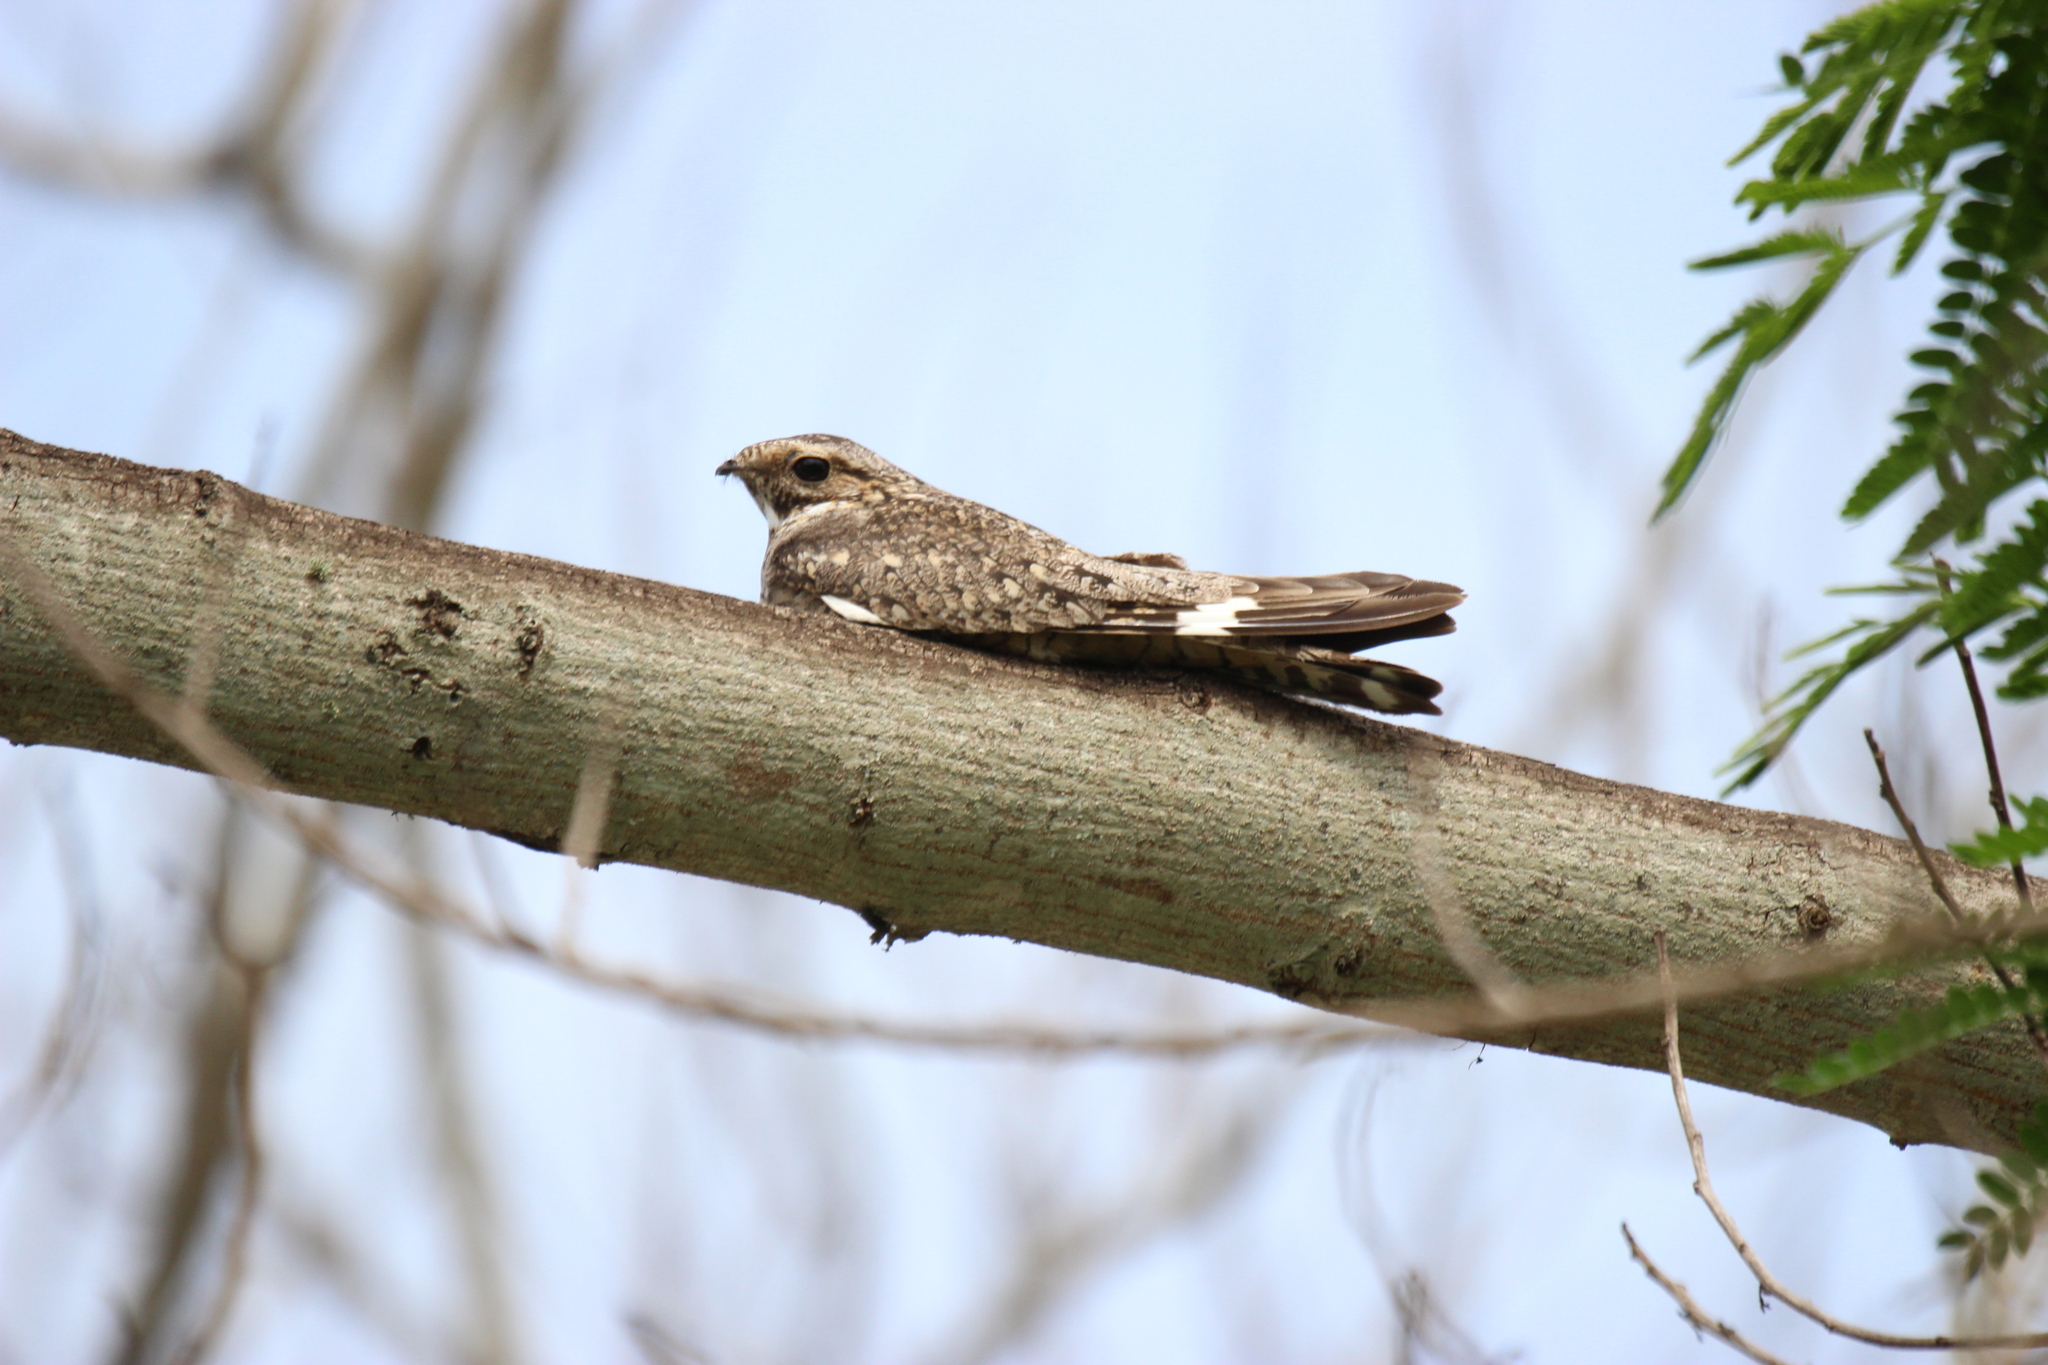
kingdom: Animalia
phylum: Chordata
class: Aves
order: Caprimulgiformes
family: Caprimulgidae
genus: Chordeiles
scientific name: Chordeiles acutipennis
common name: Lesser nighthawk
